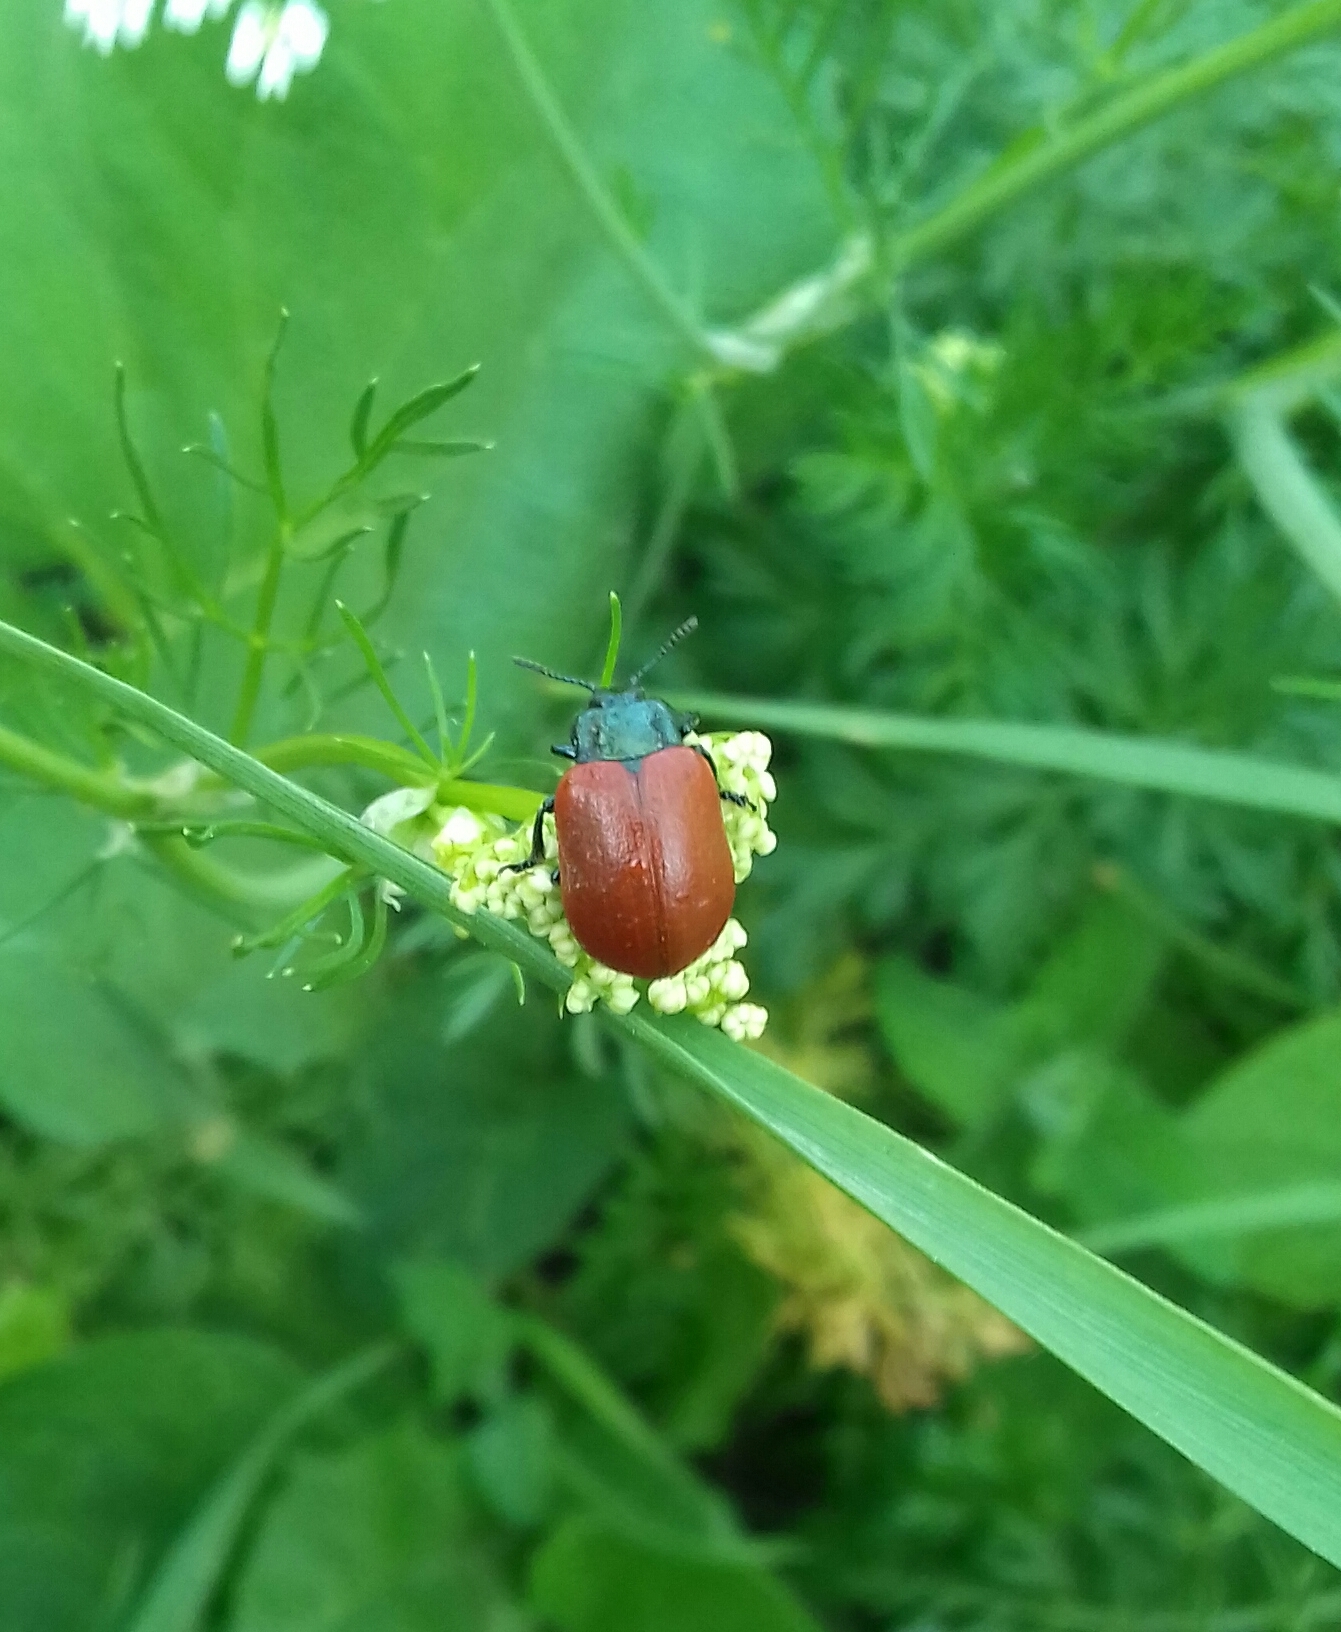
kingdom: Animalia
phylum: Arthropoda
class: Insecta
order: Coleoptera
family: Chrysomelidae
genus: Chrysomela
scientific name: Chrysomela populi
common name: Red poplar leaf beetle
